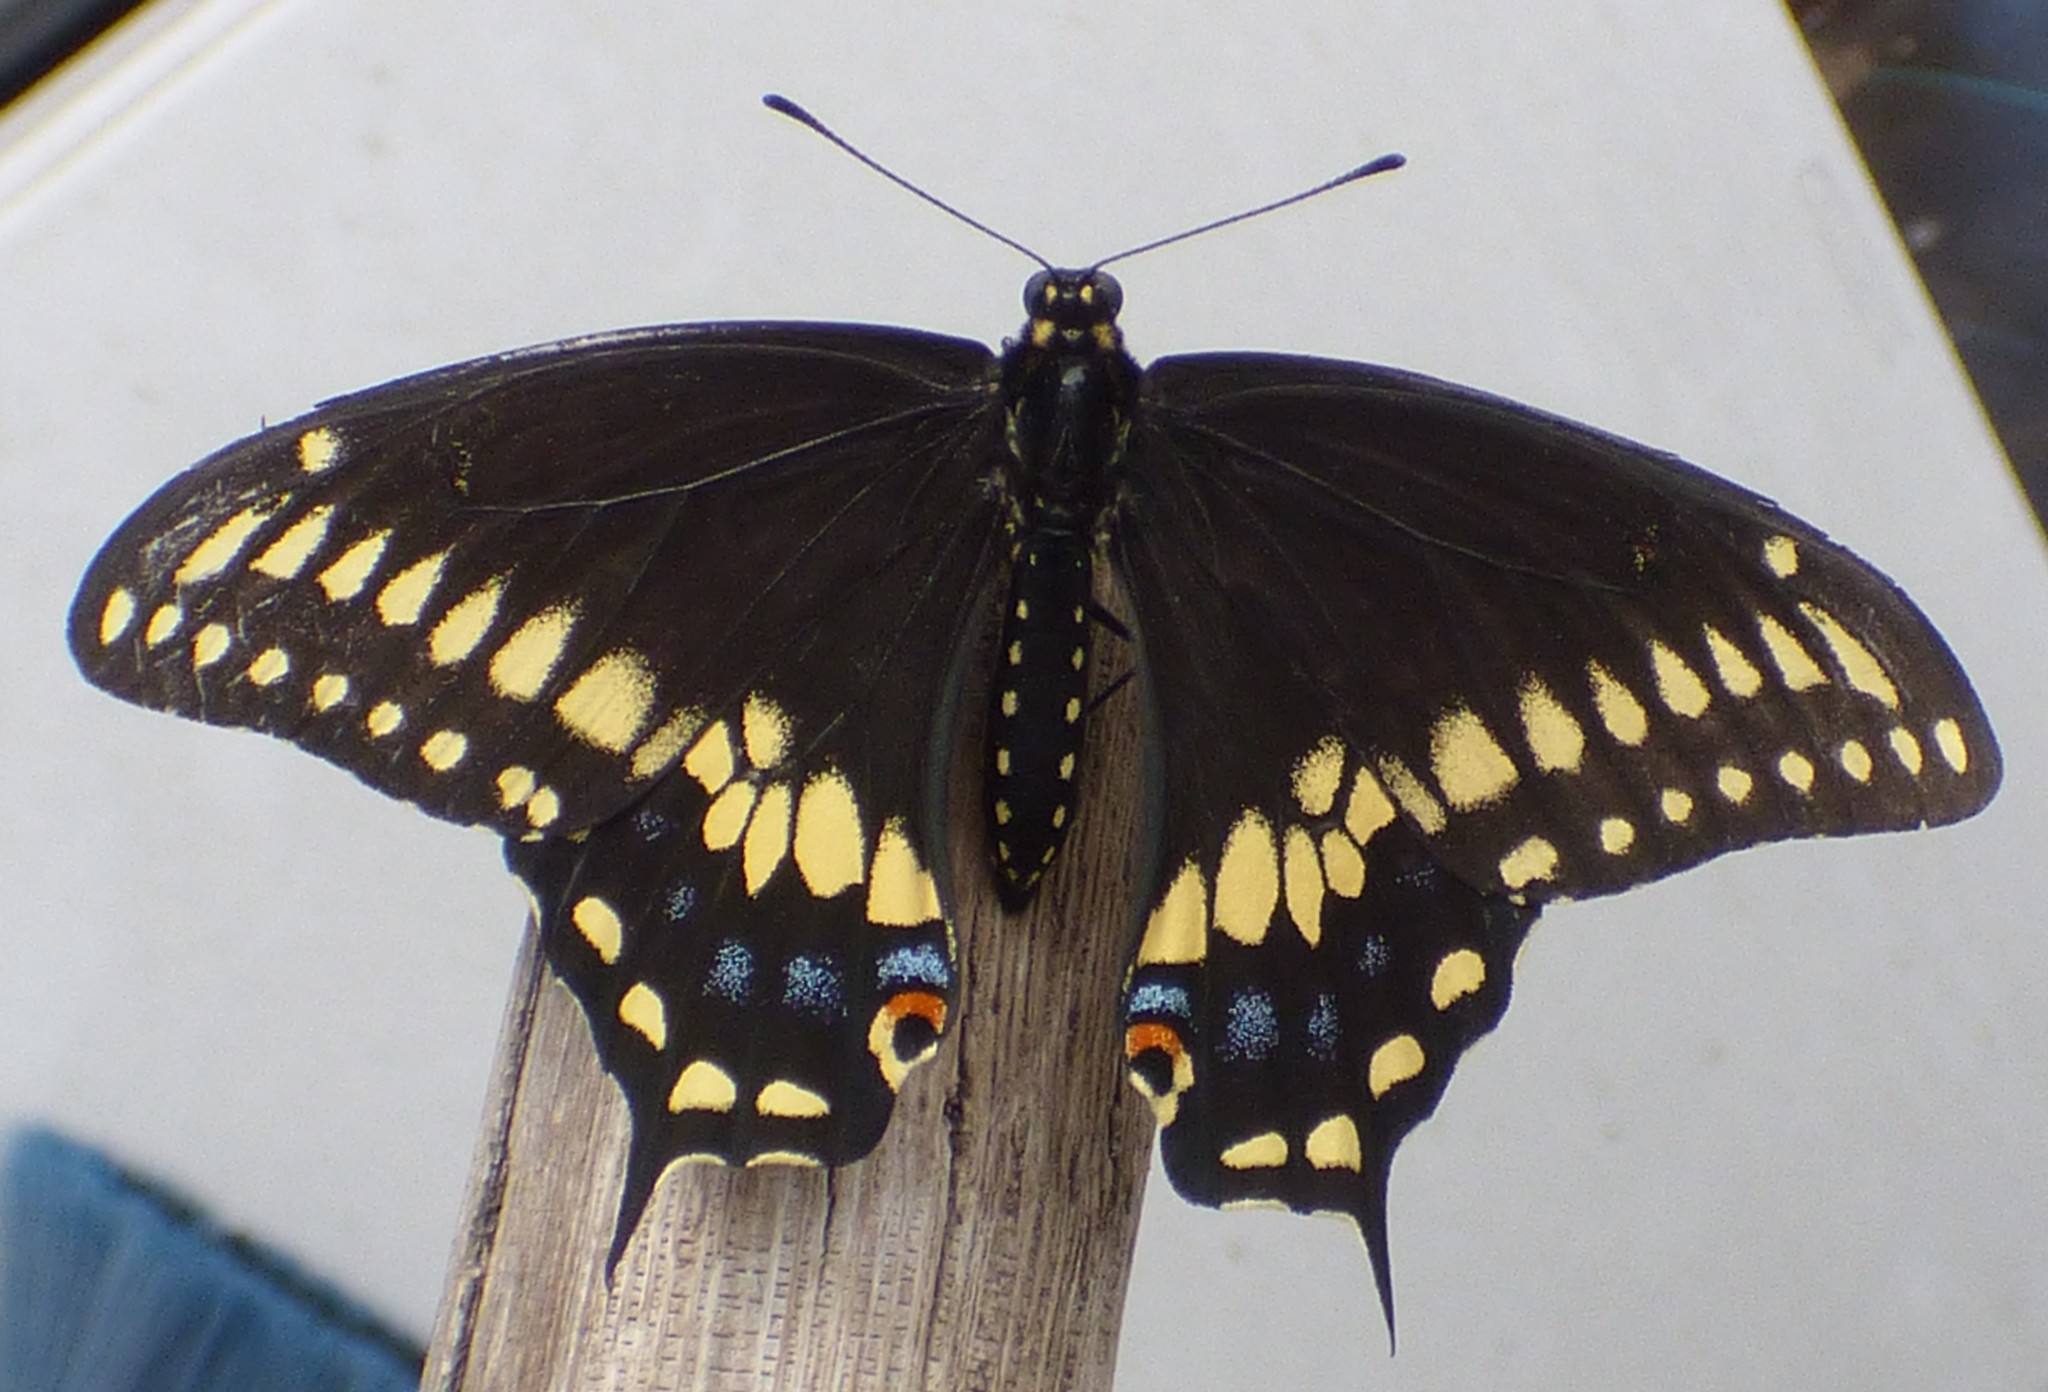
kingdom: Animalia
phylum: Arthropoda
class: Insecta
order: Lepidoptera
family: Papilionidae
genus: Papilio
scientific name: Papilio polyxenes
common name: Black swallowtail
